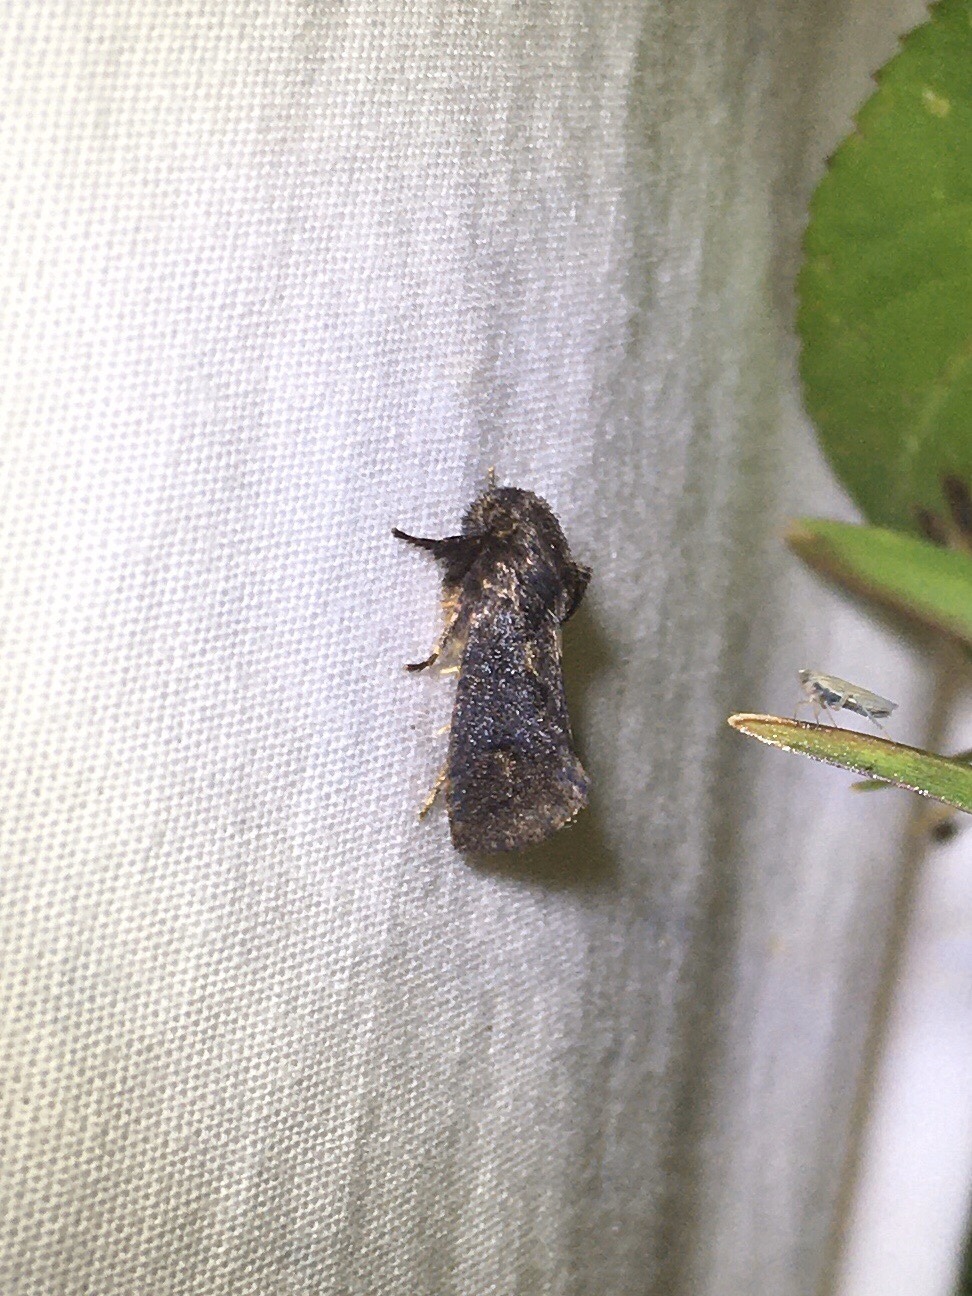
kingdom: Animalia
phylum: Arthropoda
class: Insecta
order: Lepidoptera
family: Tineidae
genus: Acrolophus
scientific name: Acrolophus walsinghami
